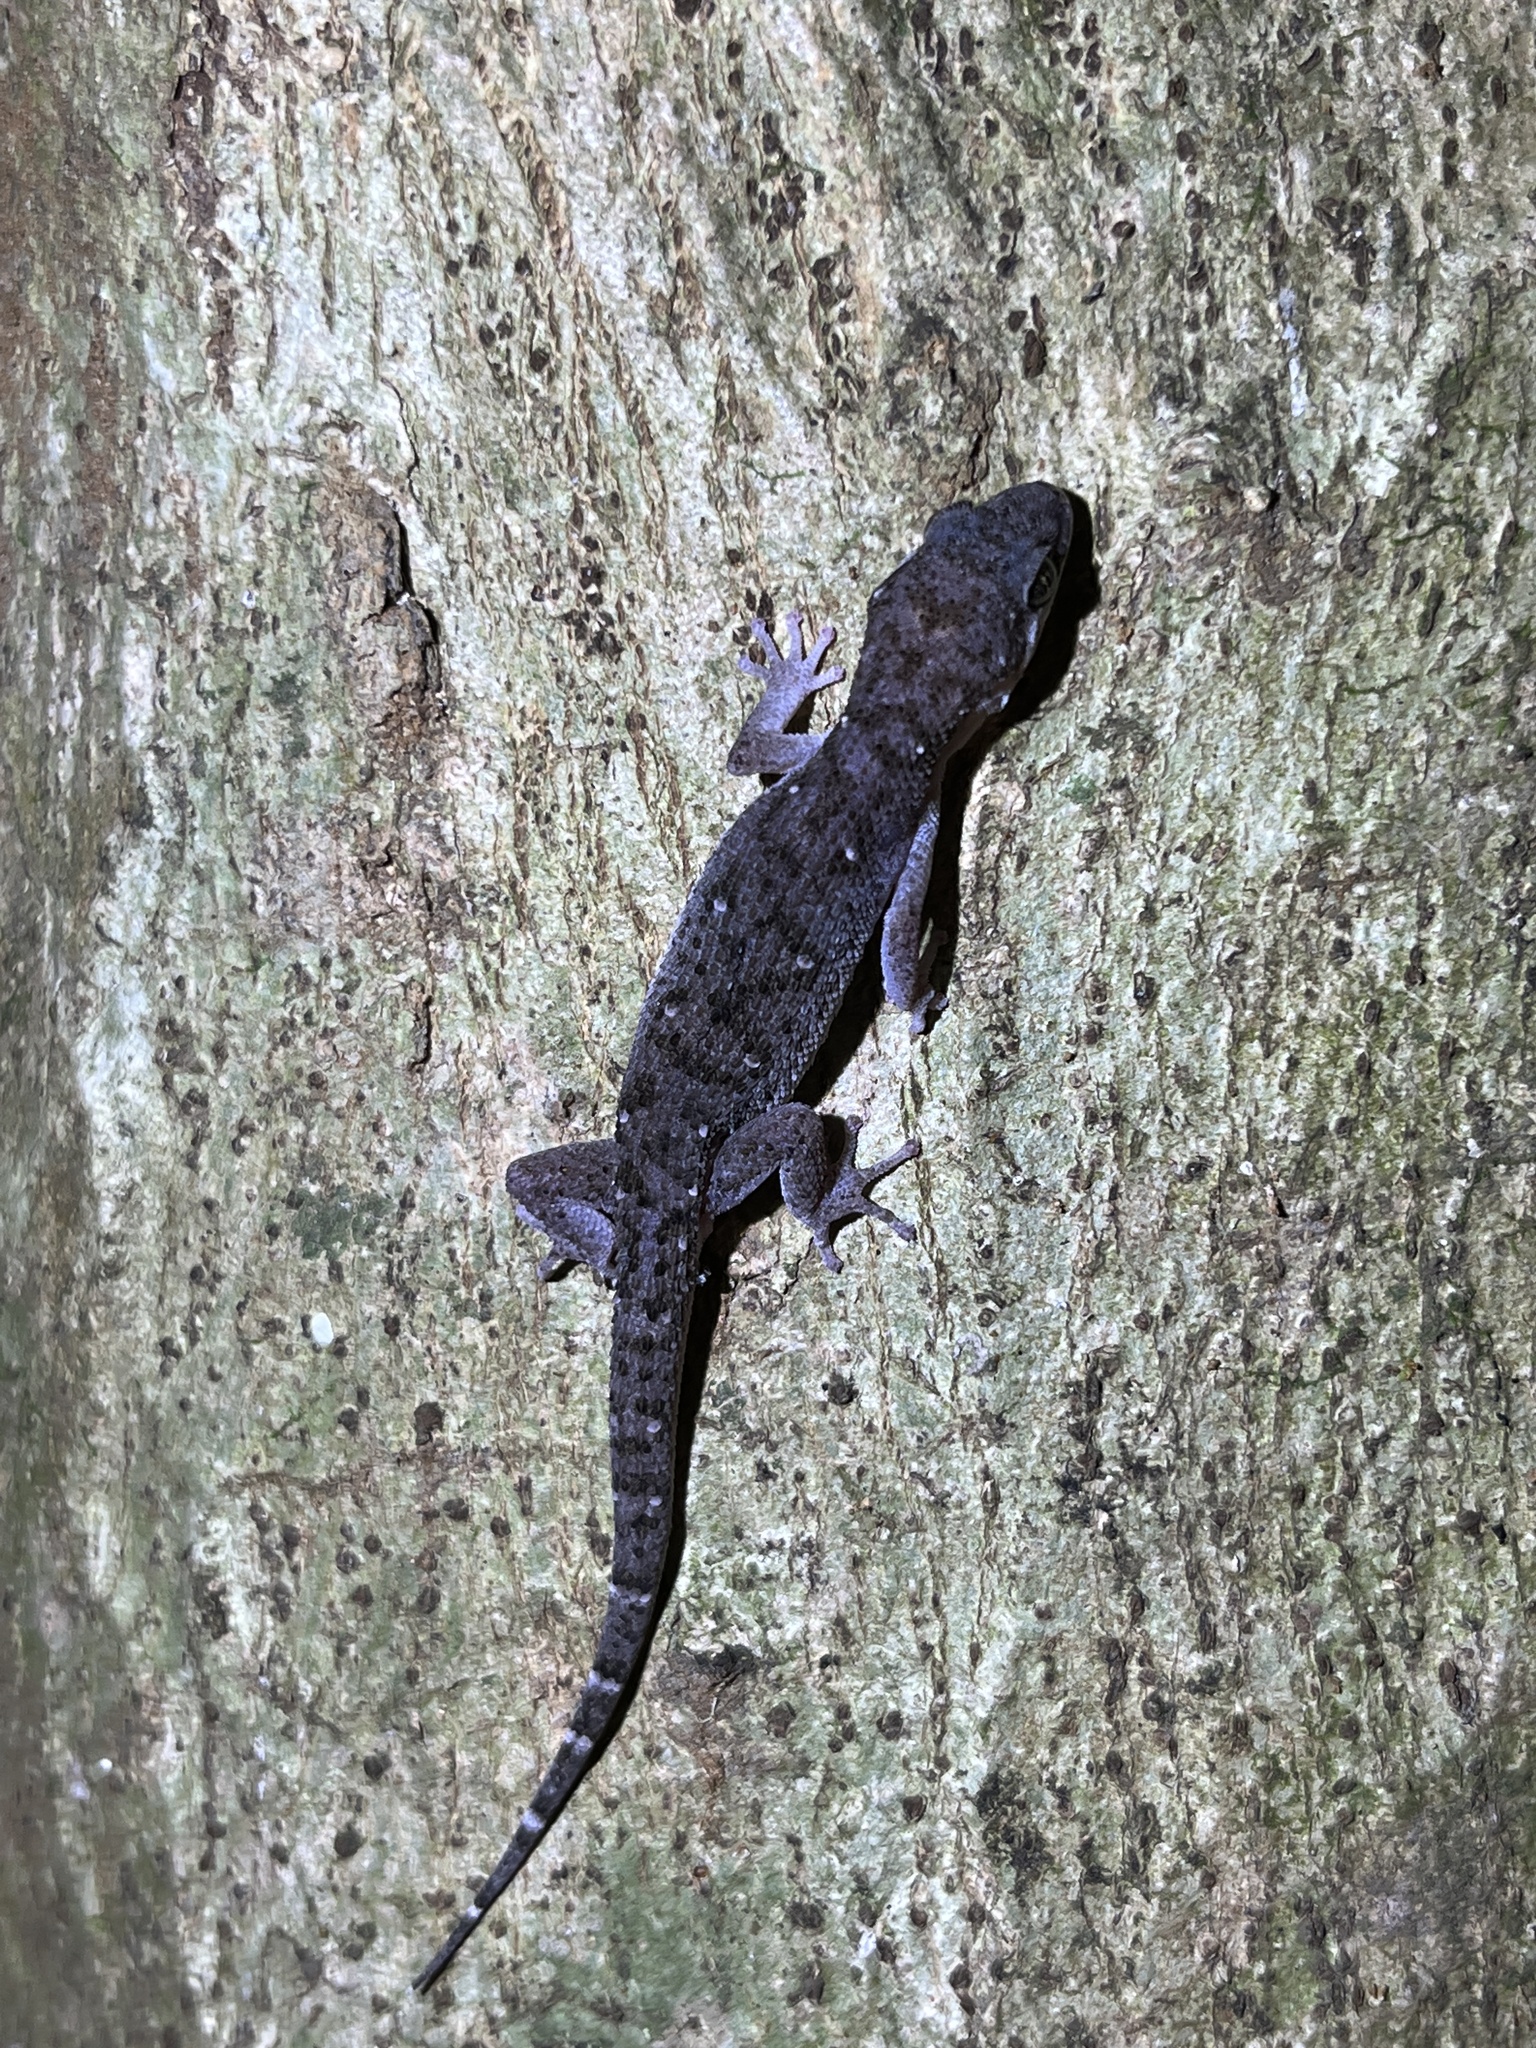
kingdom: Animalia
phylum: Chordata
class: Squamata
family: Gekkonidae
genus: Dixonius
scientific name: Dixonius siamensis
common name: Siamese leaf-toed gecko
